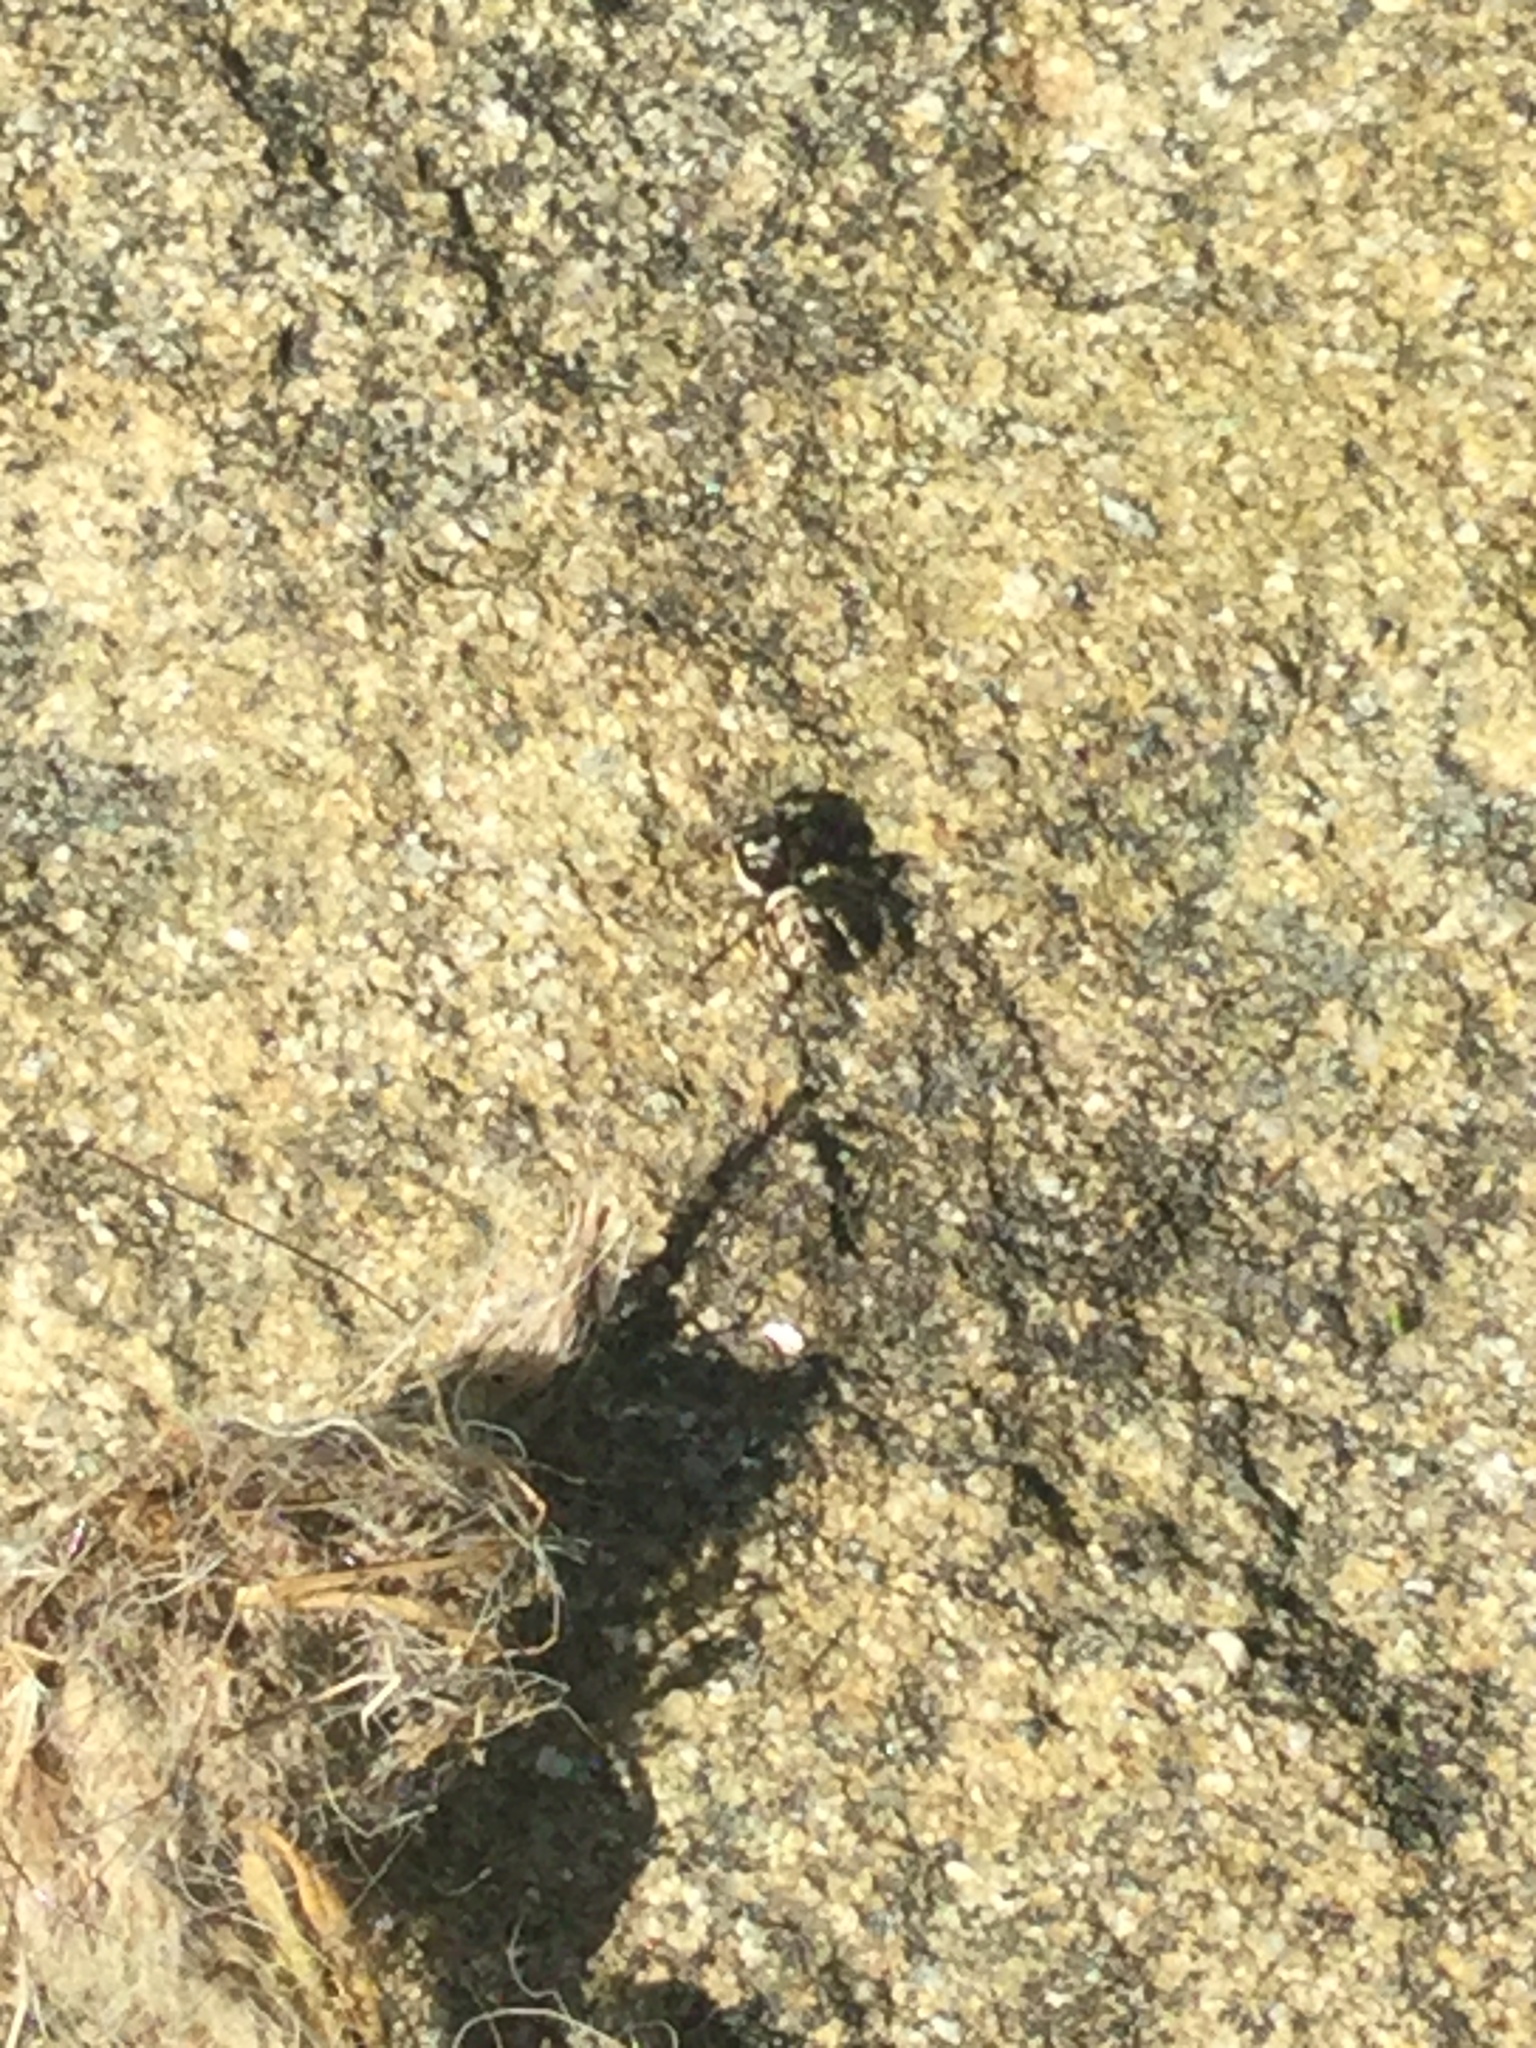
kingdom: Animalia
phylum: Arthropoda
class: Arachnida
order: Araneae
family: Salticidae
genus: Salticus
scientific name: Salticus scenicus
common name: Zebra jumper
